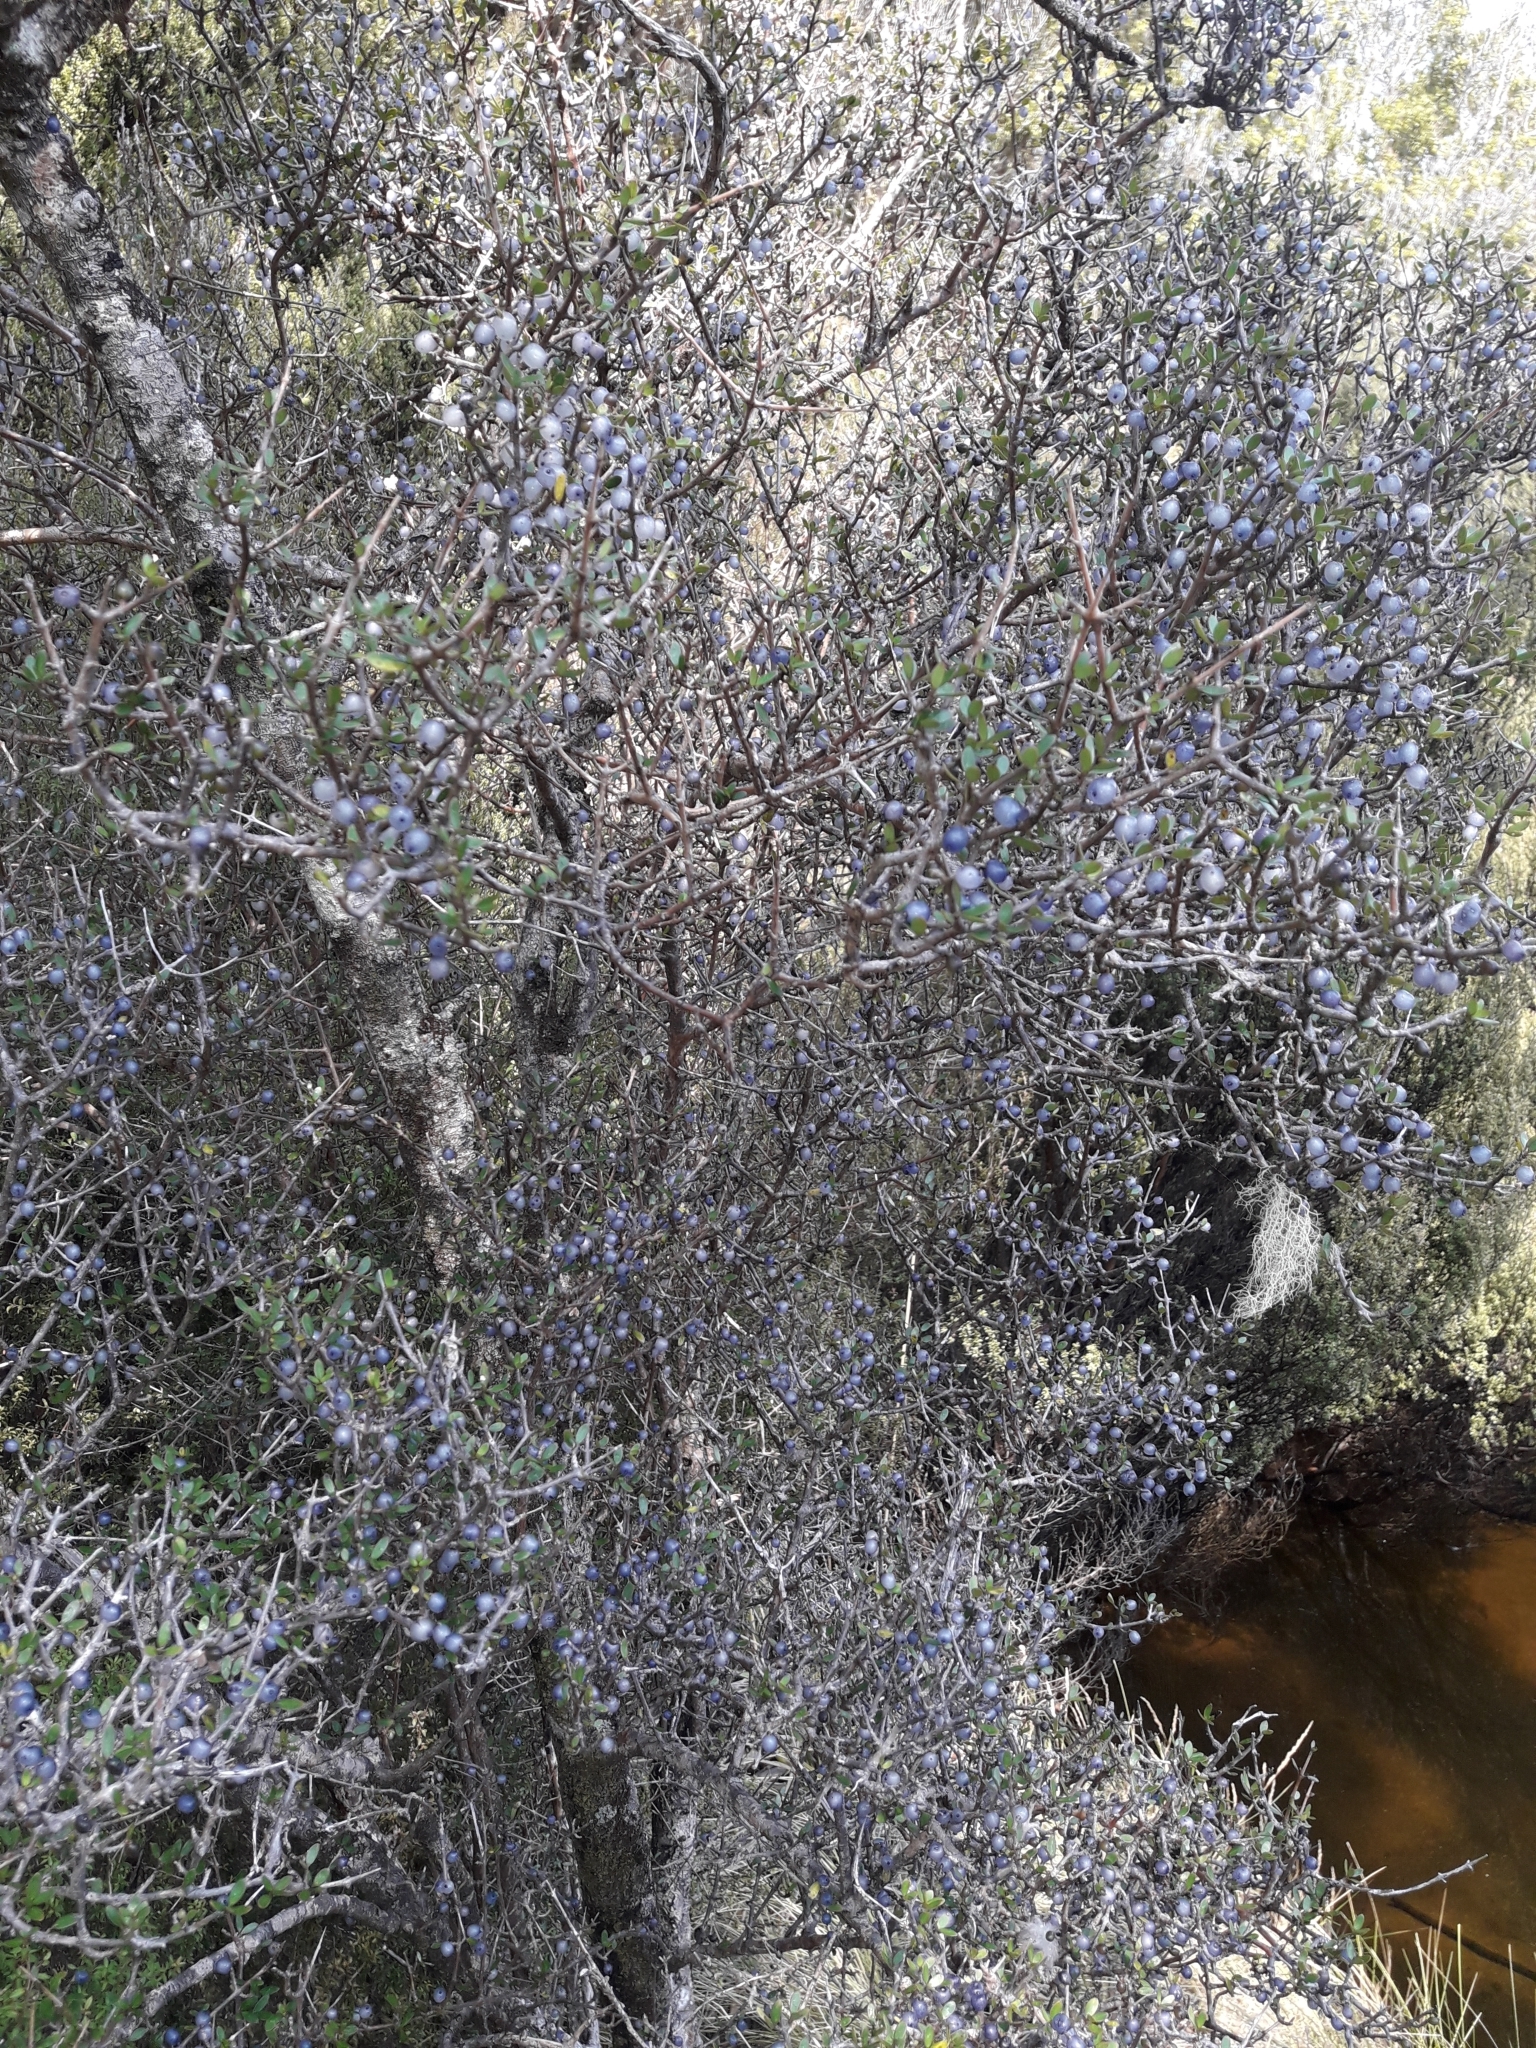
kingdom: Plantae
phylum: Tracheophyta
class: Magnoliopsida
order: Gentianales
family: Rubiaceae
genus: Coprosma
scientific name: Coprosma propinqua
